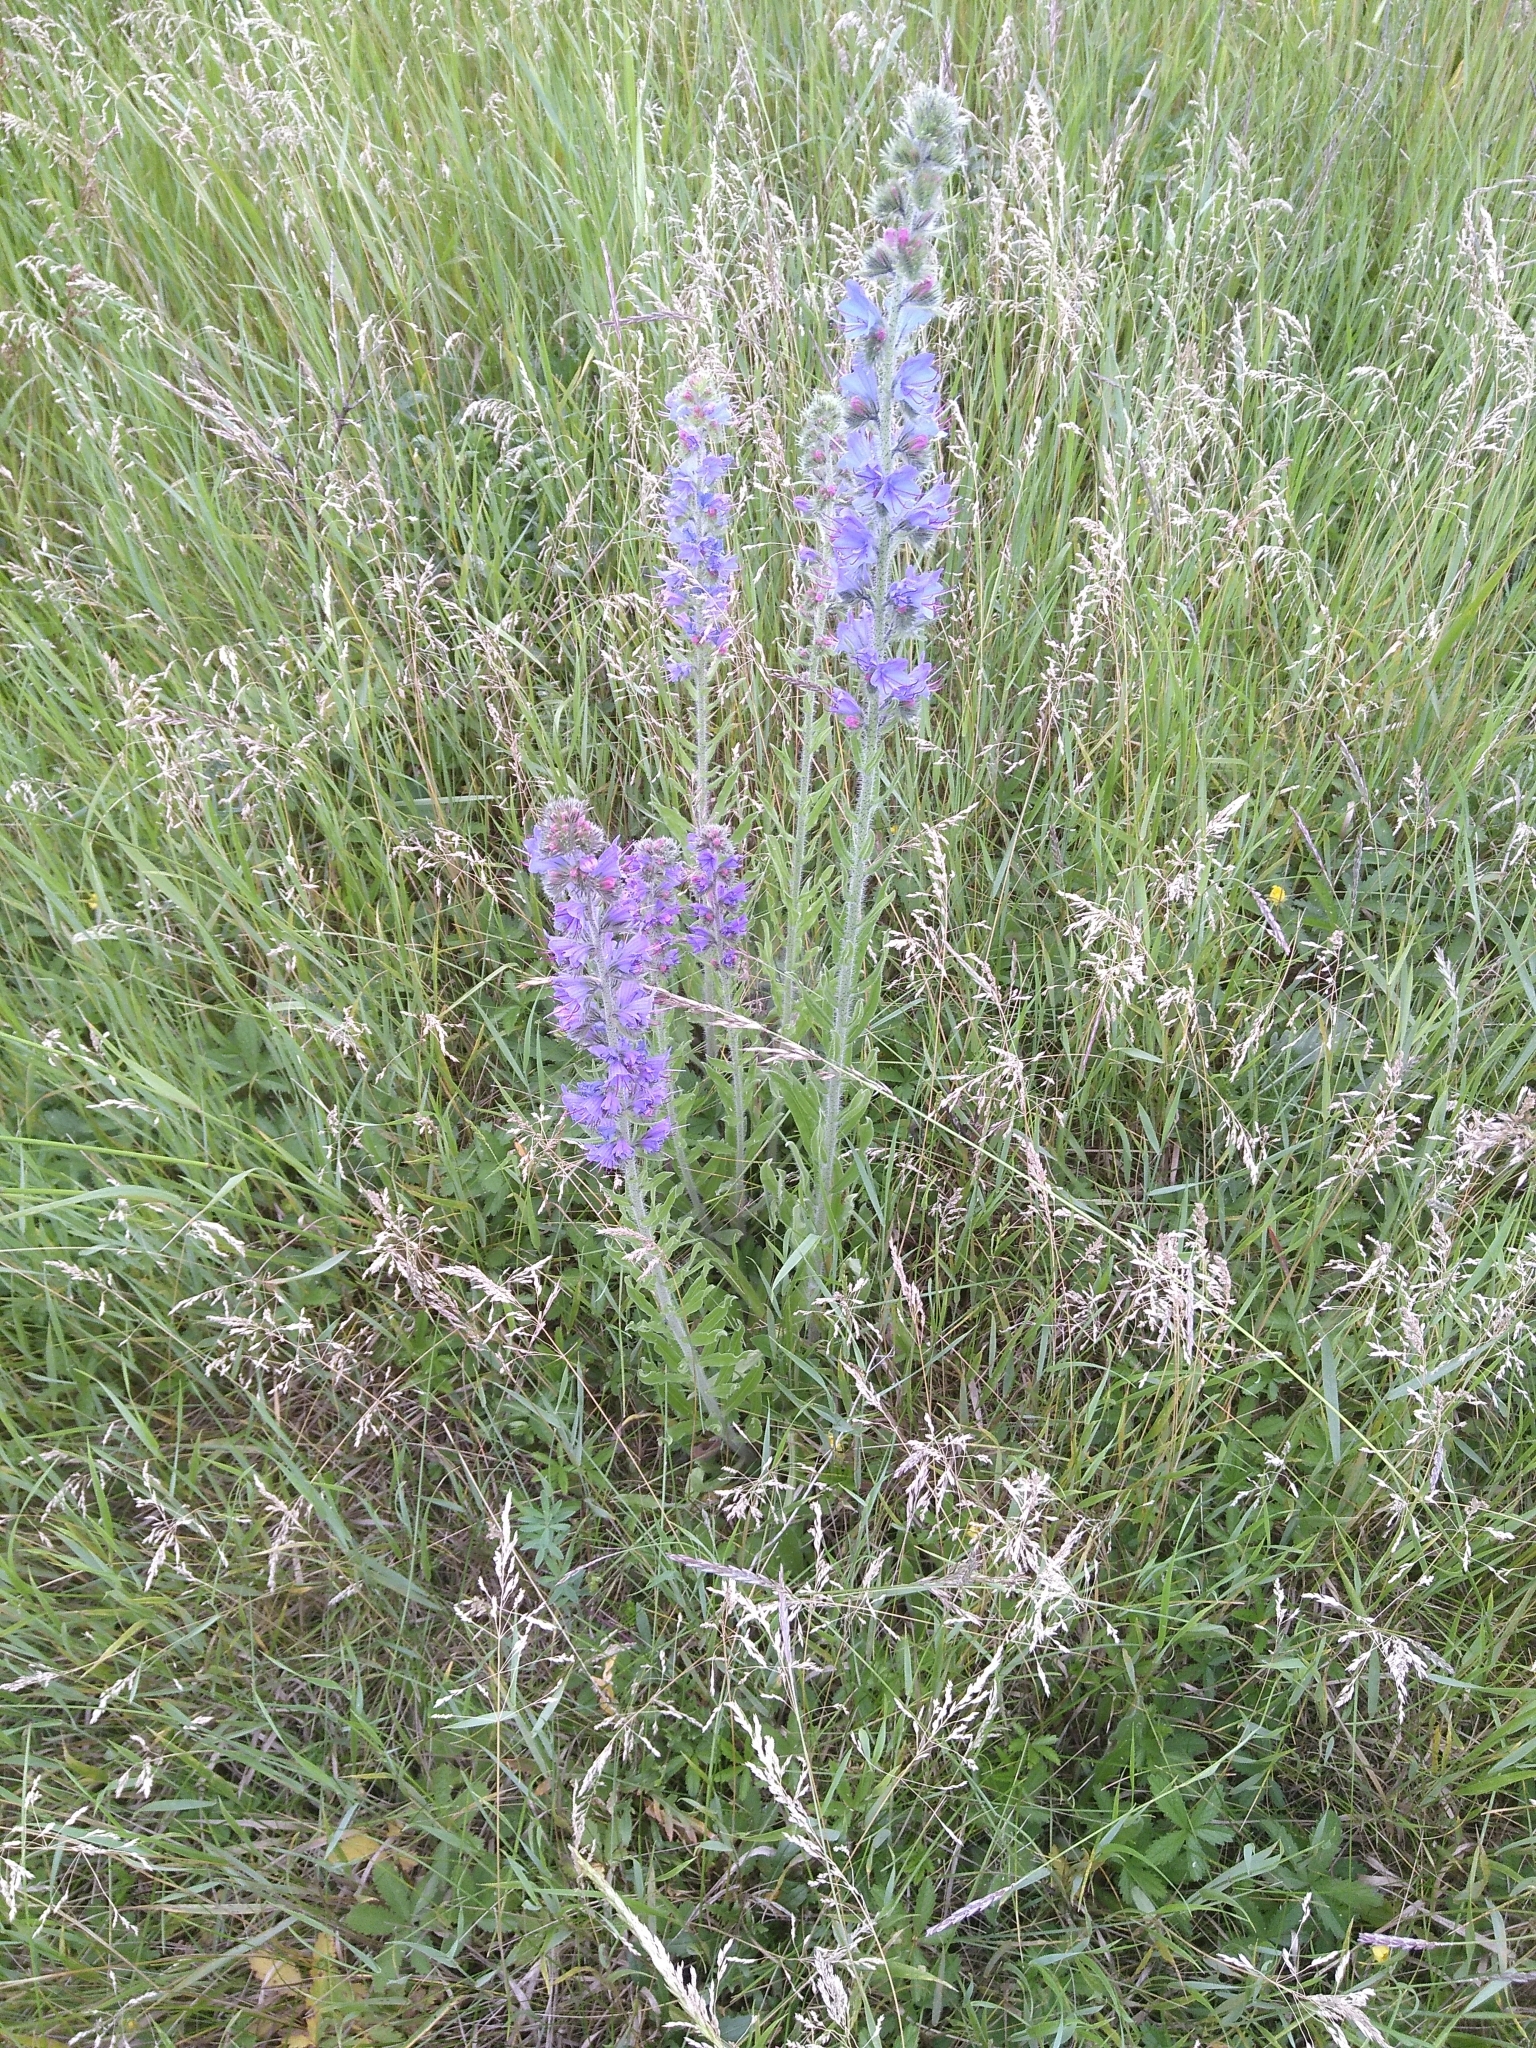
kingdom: Plantae
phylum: Tracheophyta
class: Magnoliopsida
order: Boraginales
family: Boraginaceae
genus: Echium
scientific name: Echium vulgare
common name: Common viper's bugloss
